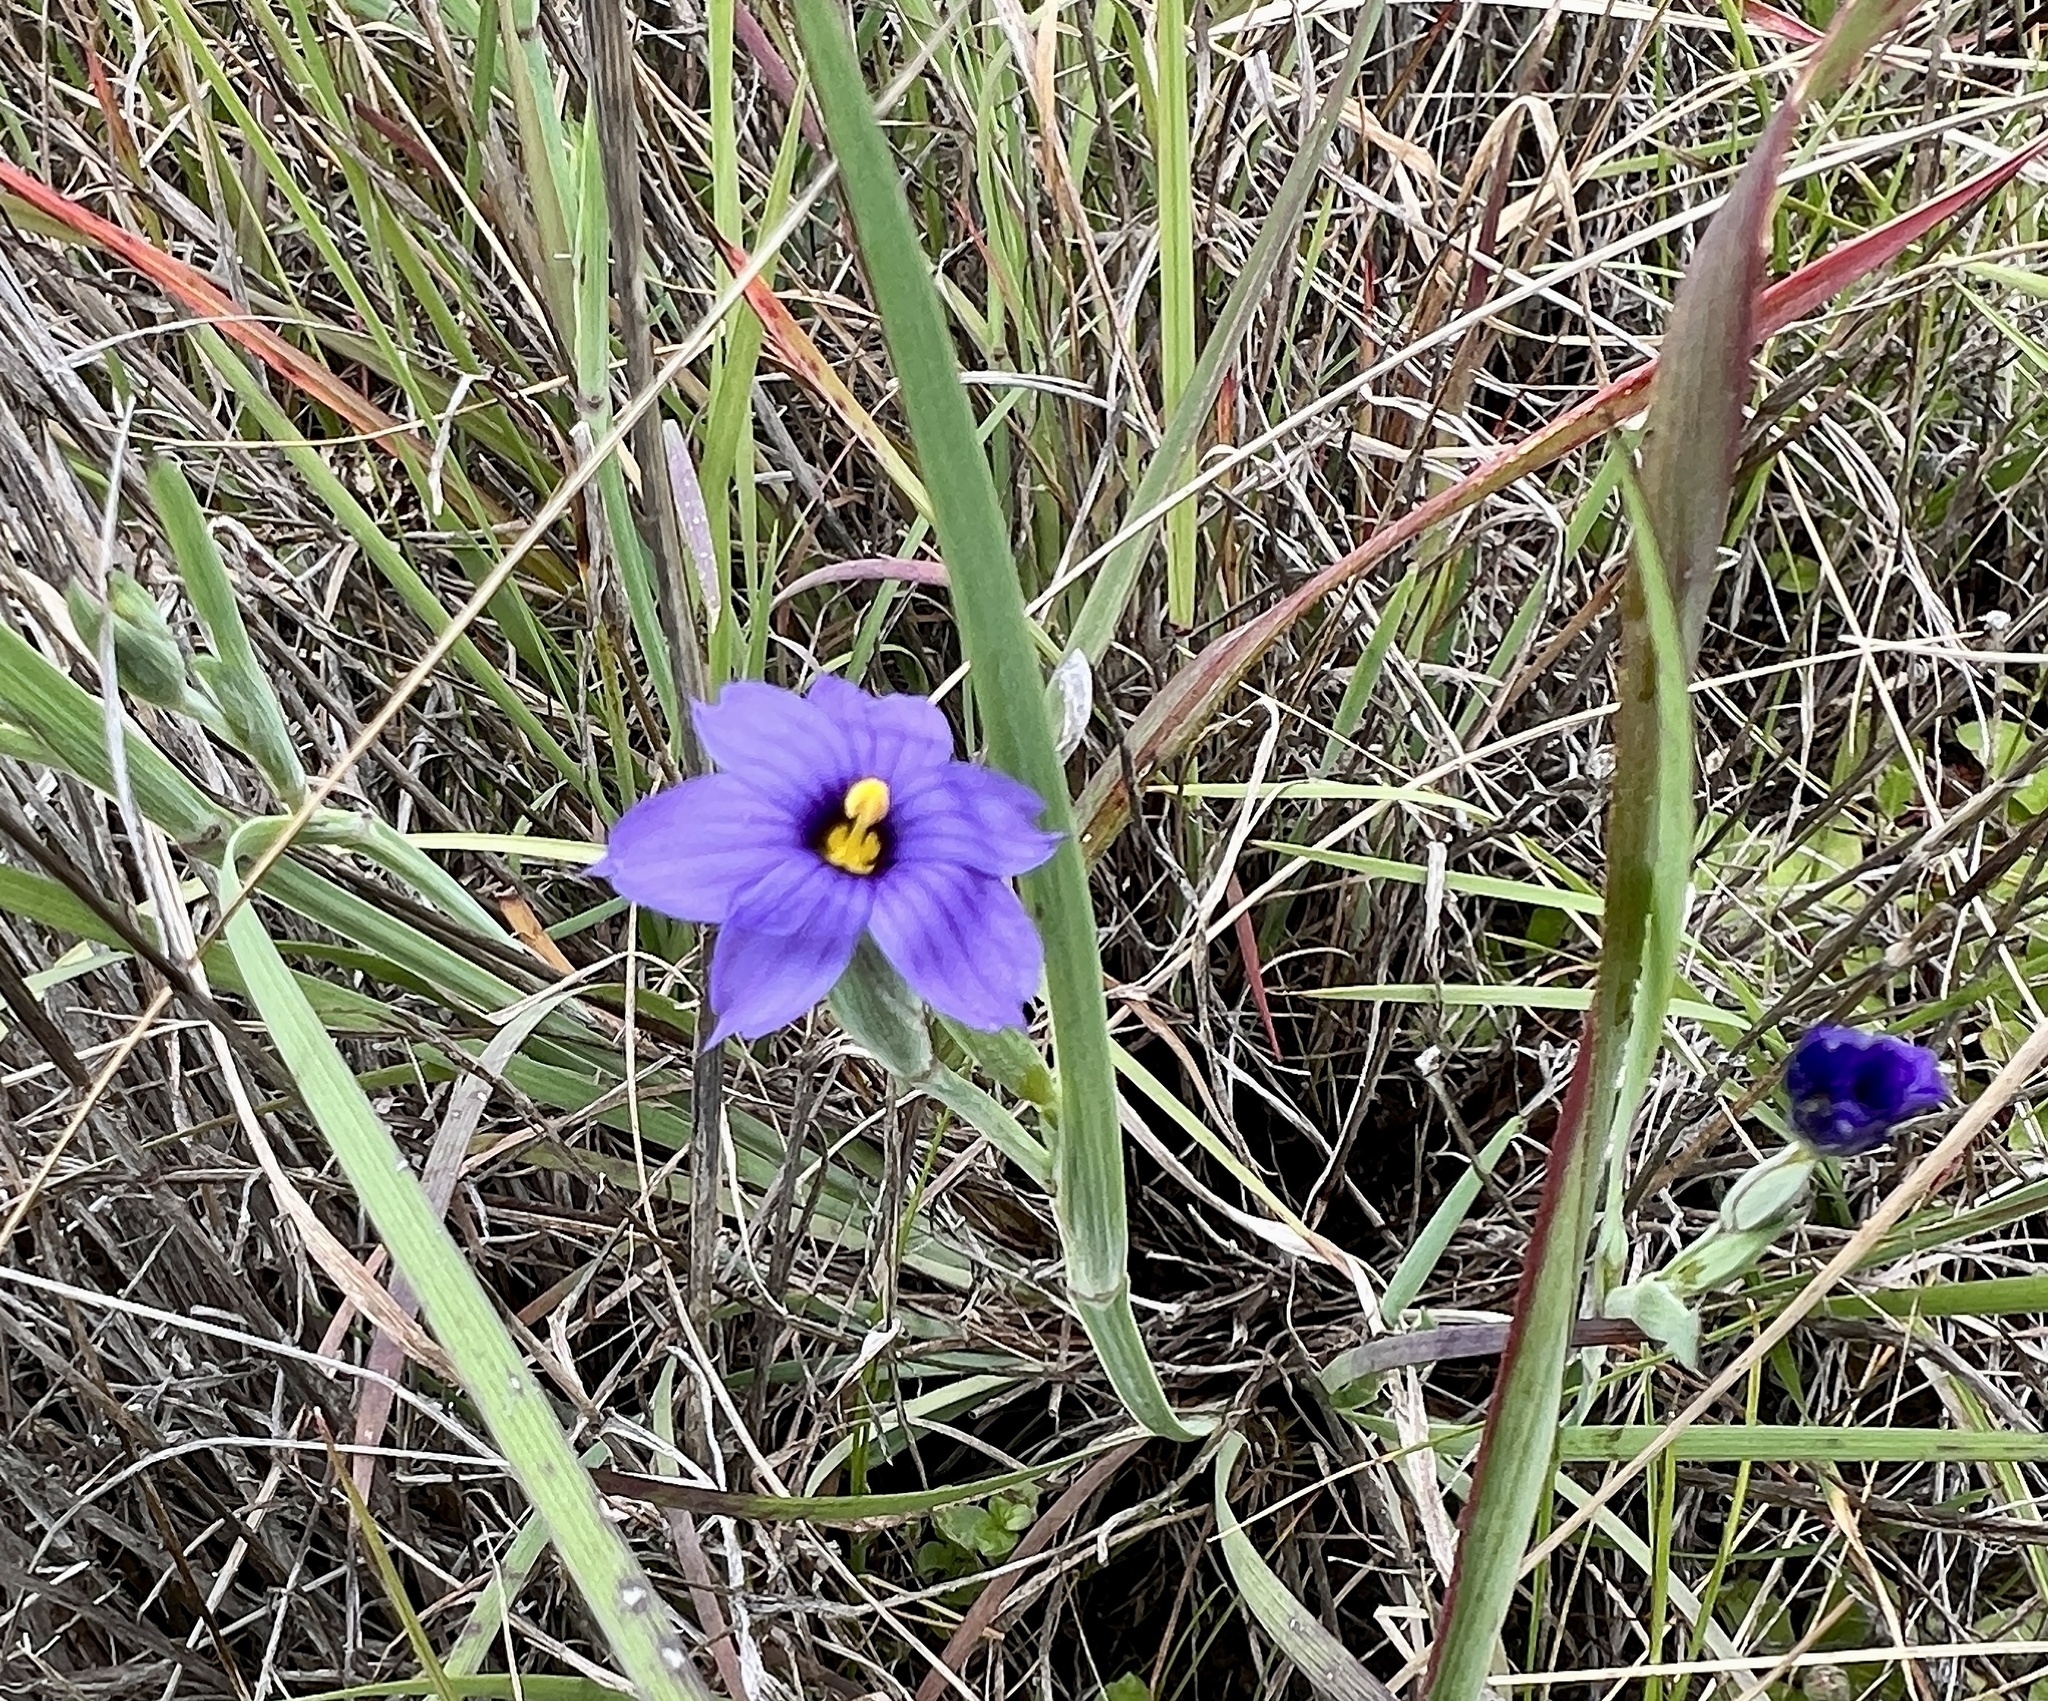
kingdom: Plantae
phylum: Tracheophyta
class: Liliopsida
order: Asparagales
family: Iridaceae
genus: Sisyrinchium
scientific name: Sisyrinchium bellum
